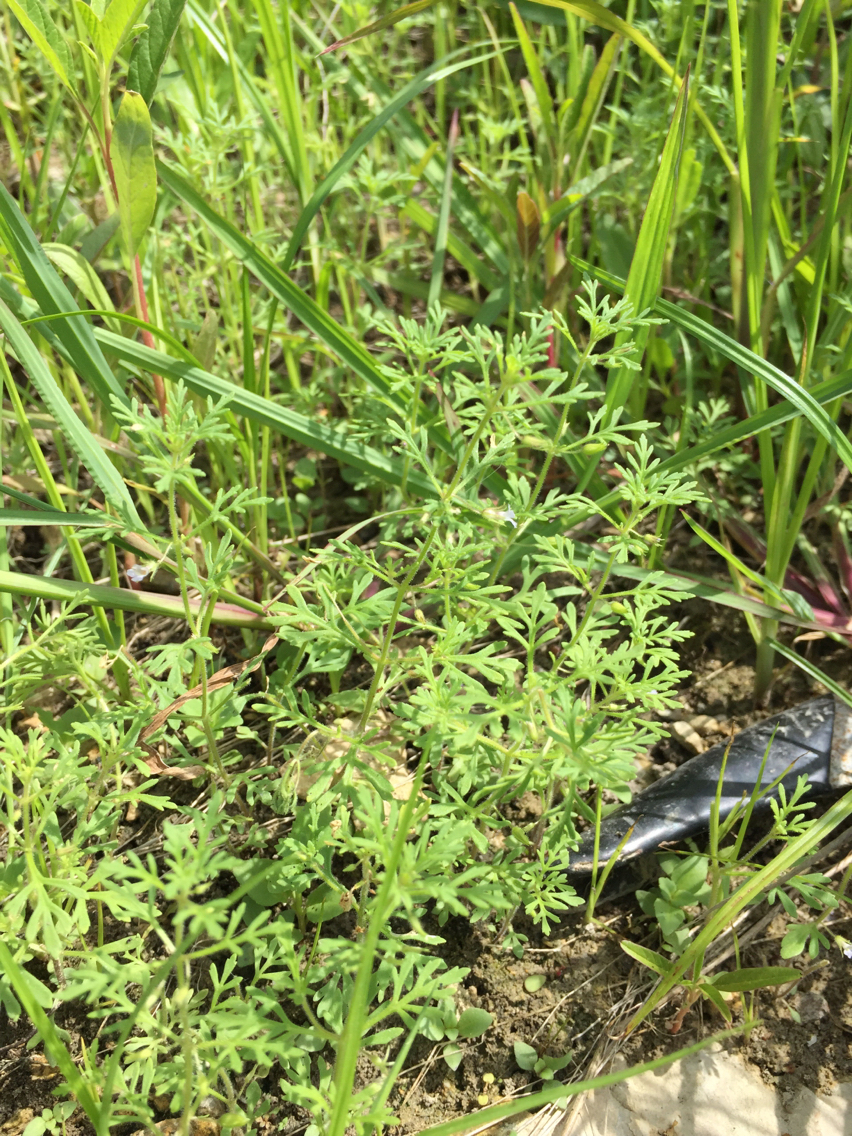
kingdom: Plantae
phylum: Tracheophyta
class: Magnoliopsida
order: Lamiales
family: Plantaginaceae
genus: Leucospora
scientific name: Leucospora multifida
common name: Narrow-leaf paleseed
